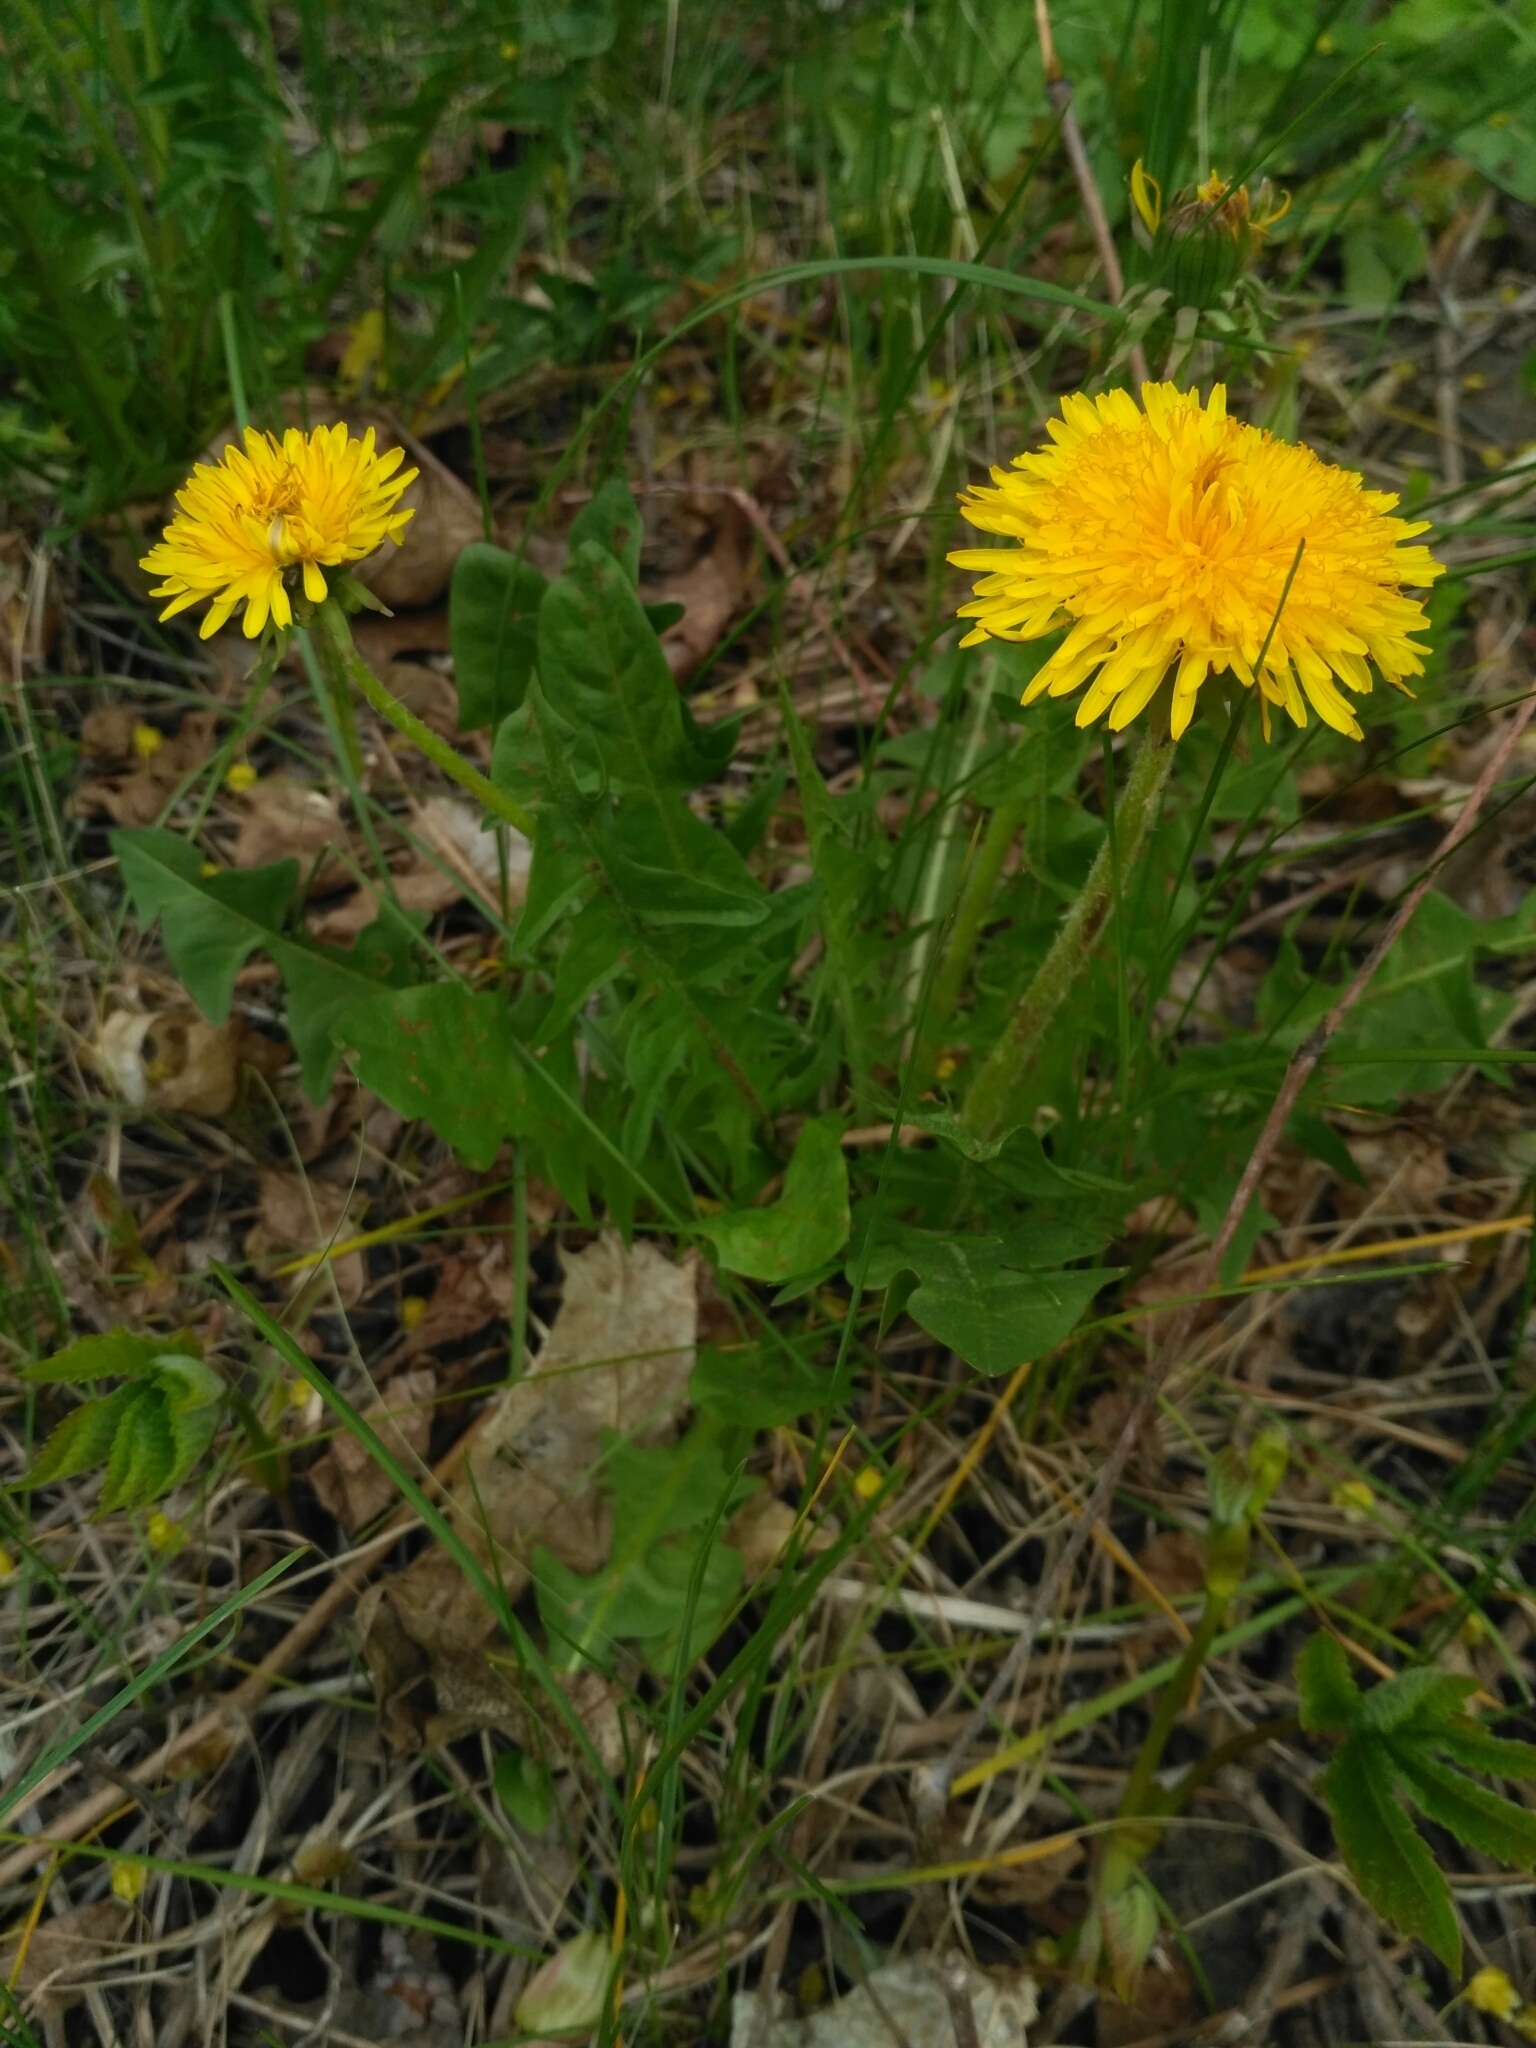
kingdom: Plantae
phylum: Tracheophyta
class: Magnoliopsida
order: Asterales
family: Asteraceae
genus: Taraxacum
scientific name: Taraxacum officinale
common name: Common dandelion
